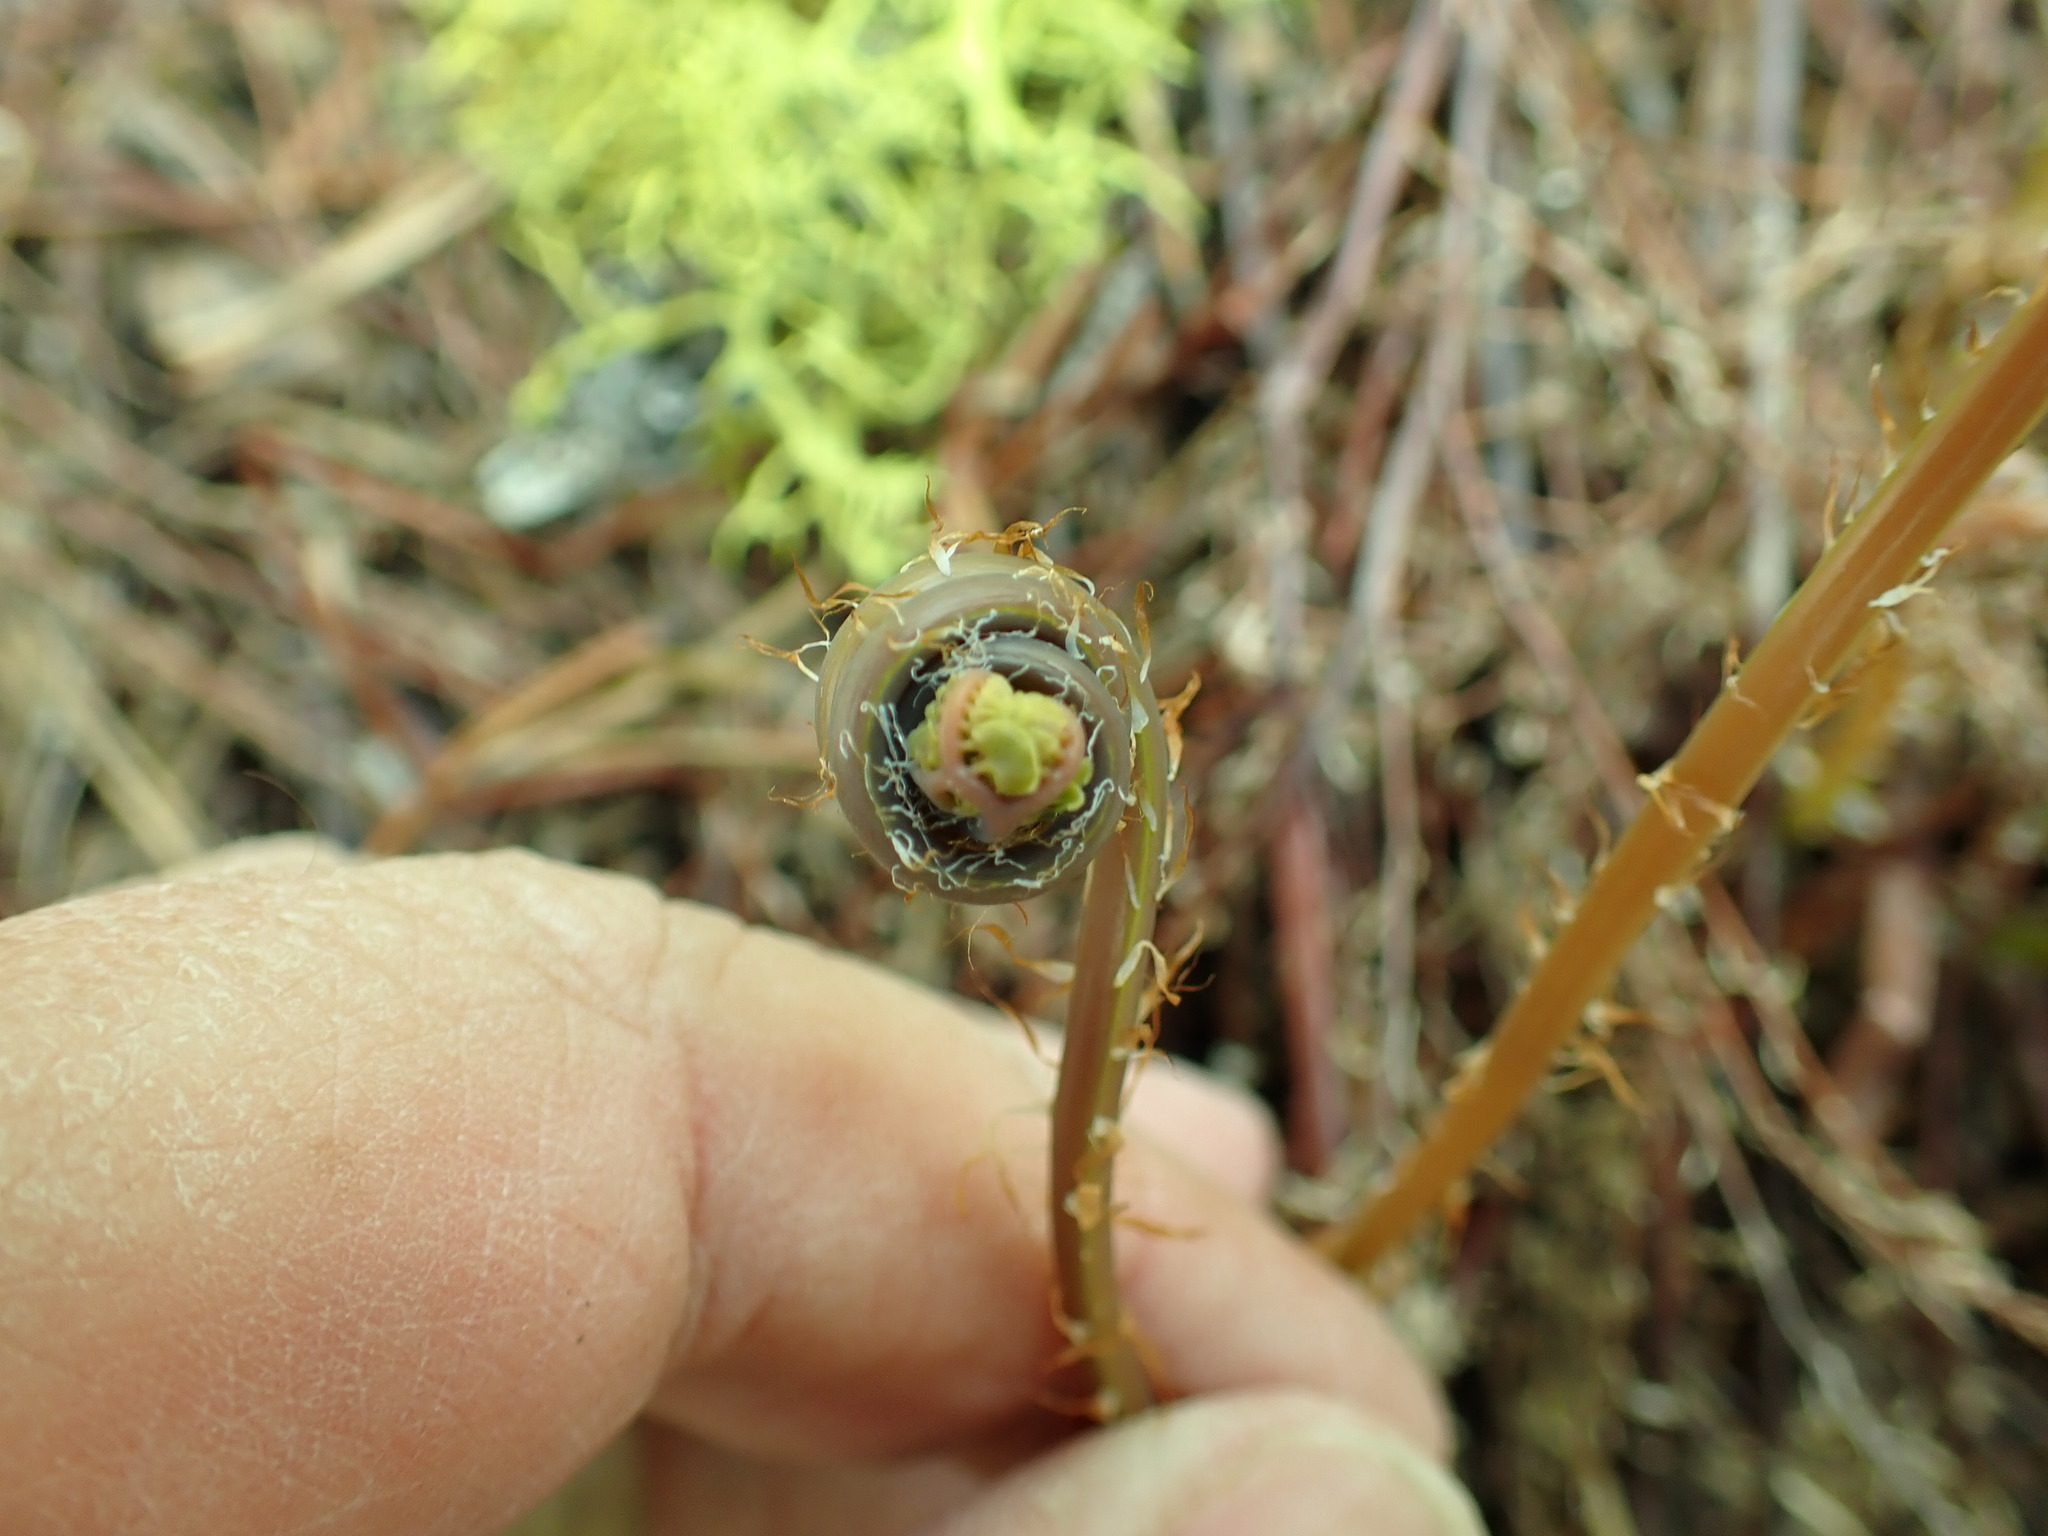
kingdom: Plantae
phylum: Tracheophyta
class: Polypodiopsida
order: Polypodiales
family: Pteridaceae
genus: Adiantum
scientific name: Adiantum aleuticum
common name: Aleutian maidenhair fern
